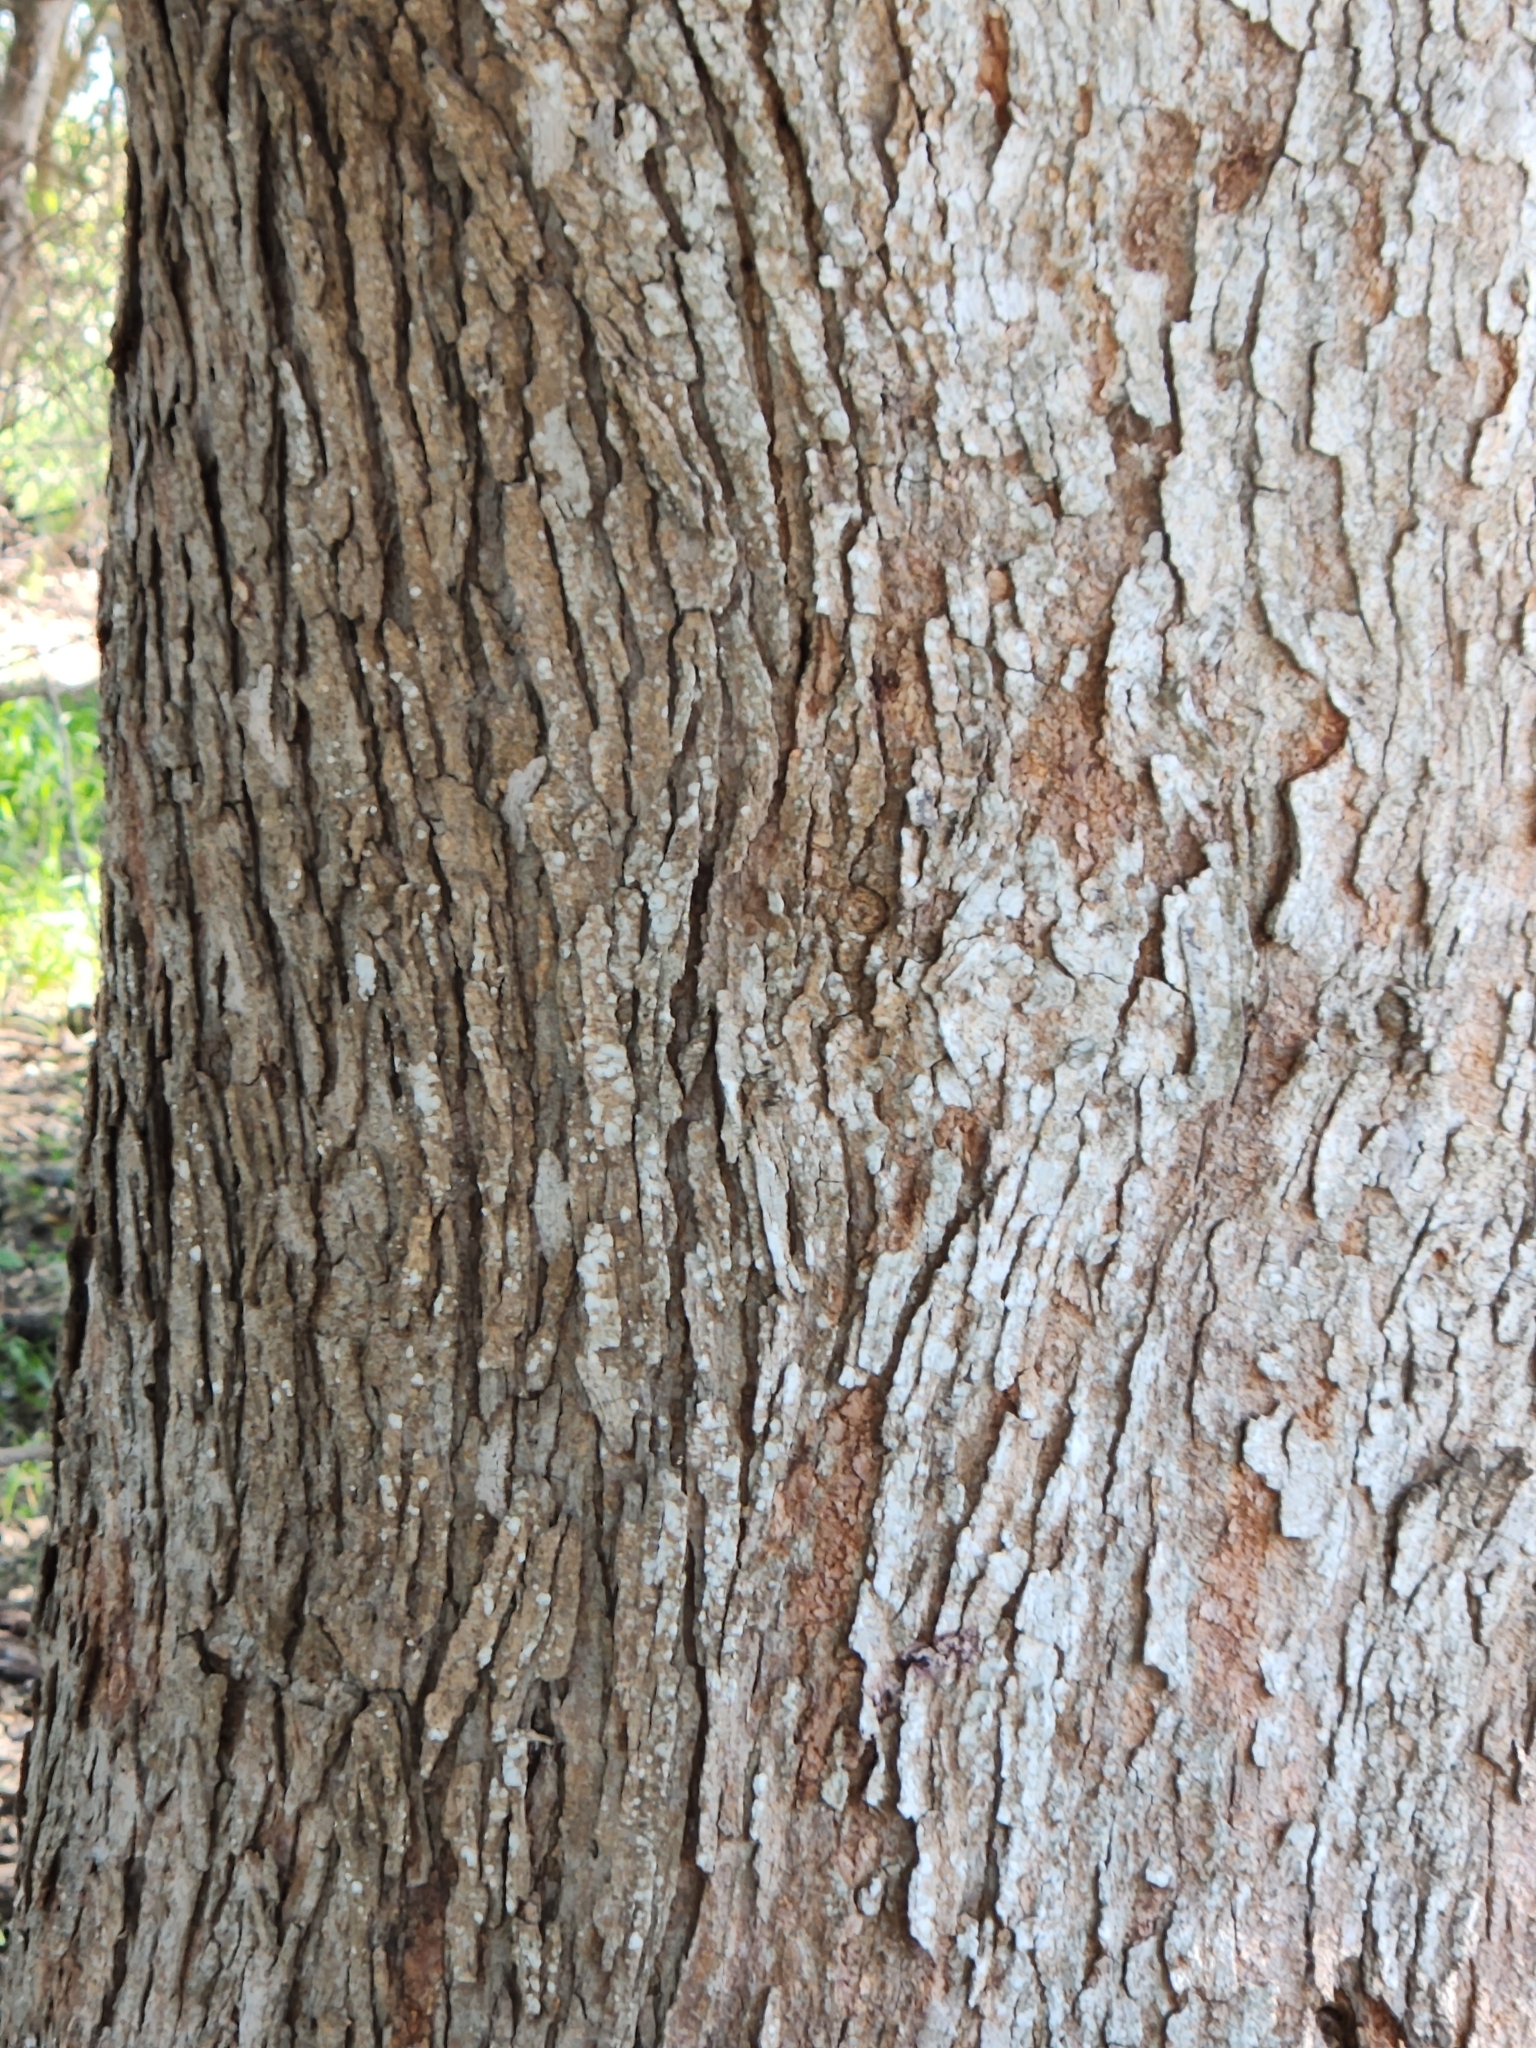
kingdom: Plantae
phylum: Tracheophyta
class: Magnoliopsida
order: Rosales
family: Moraceae
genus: Morus
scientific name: Morus alba
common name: White mulberry
